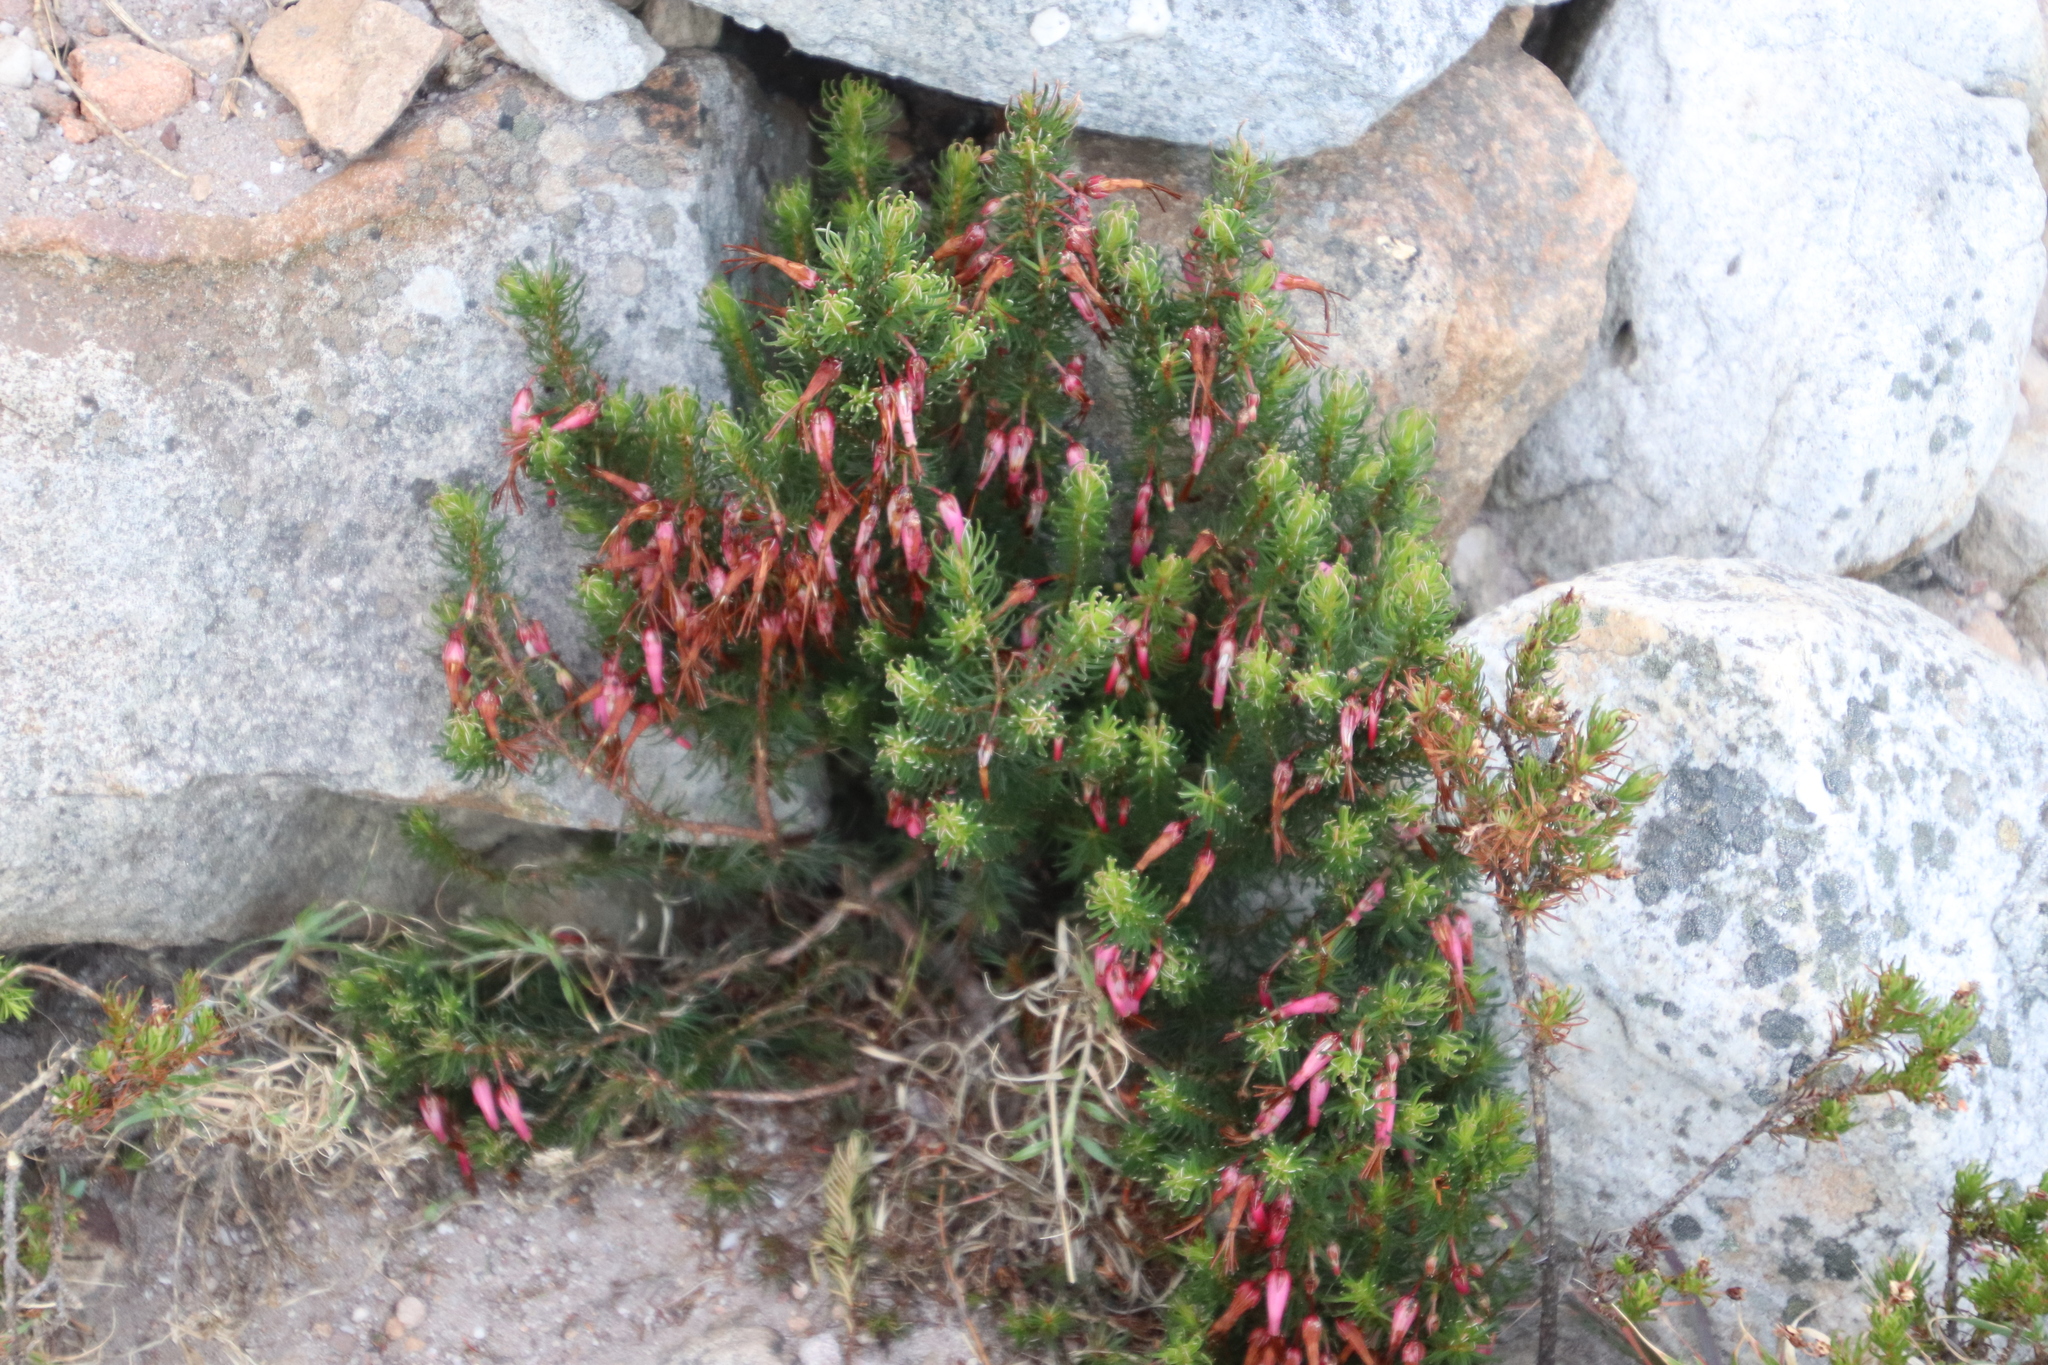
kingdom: Plantae
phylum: Tracheophyta
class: Magnoliopsida
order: Ericales
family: Ericaceae
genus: Erica
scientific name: Erica plukenetii
